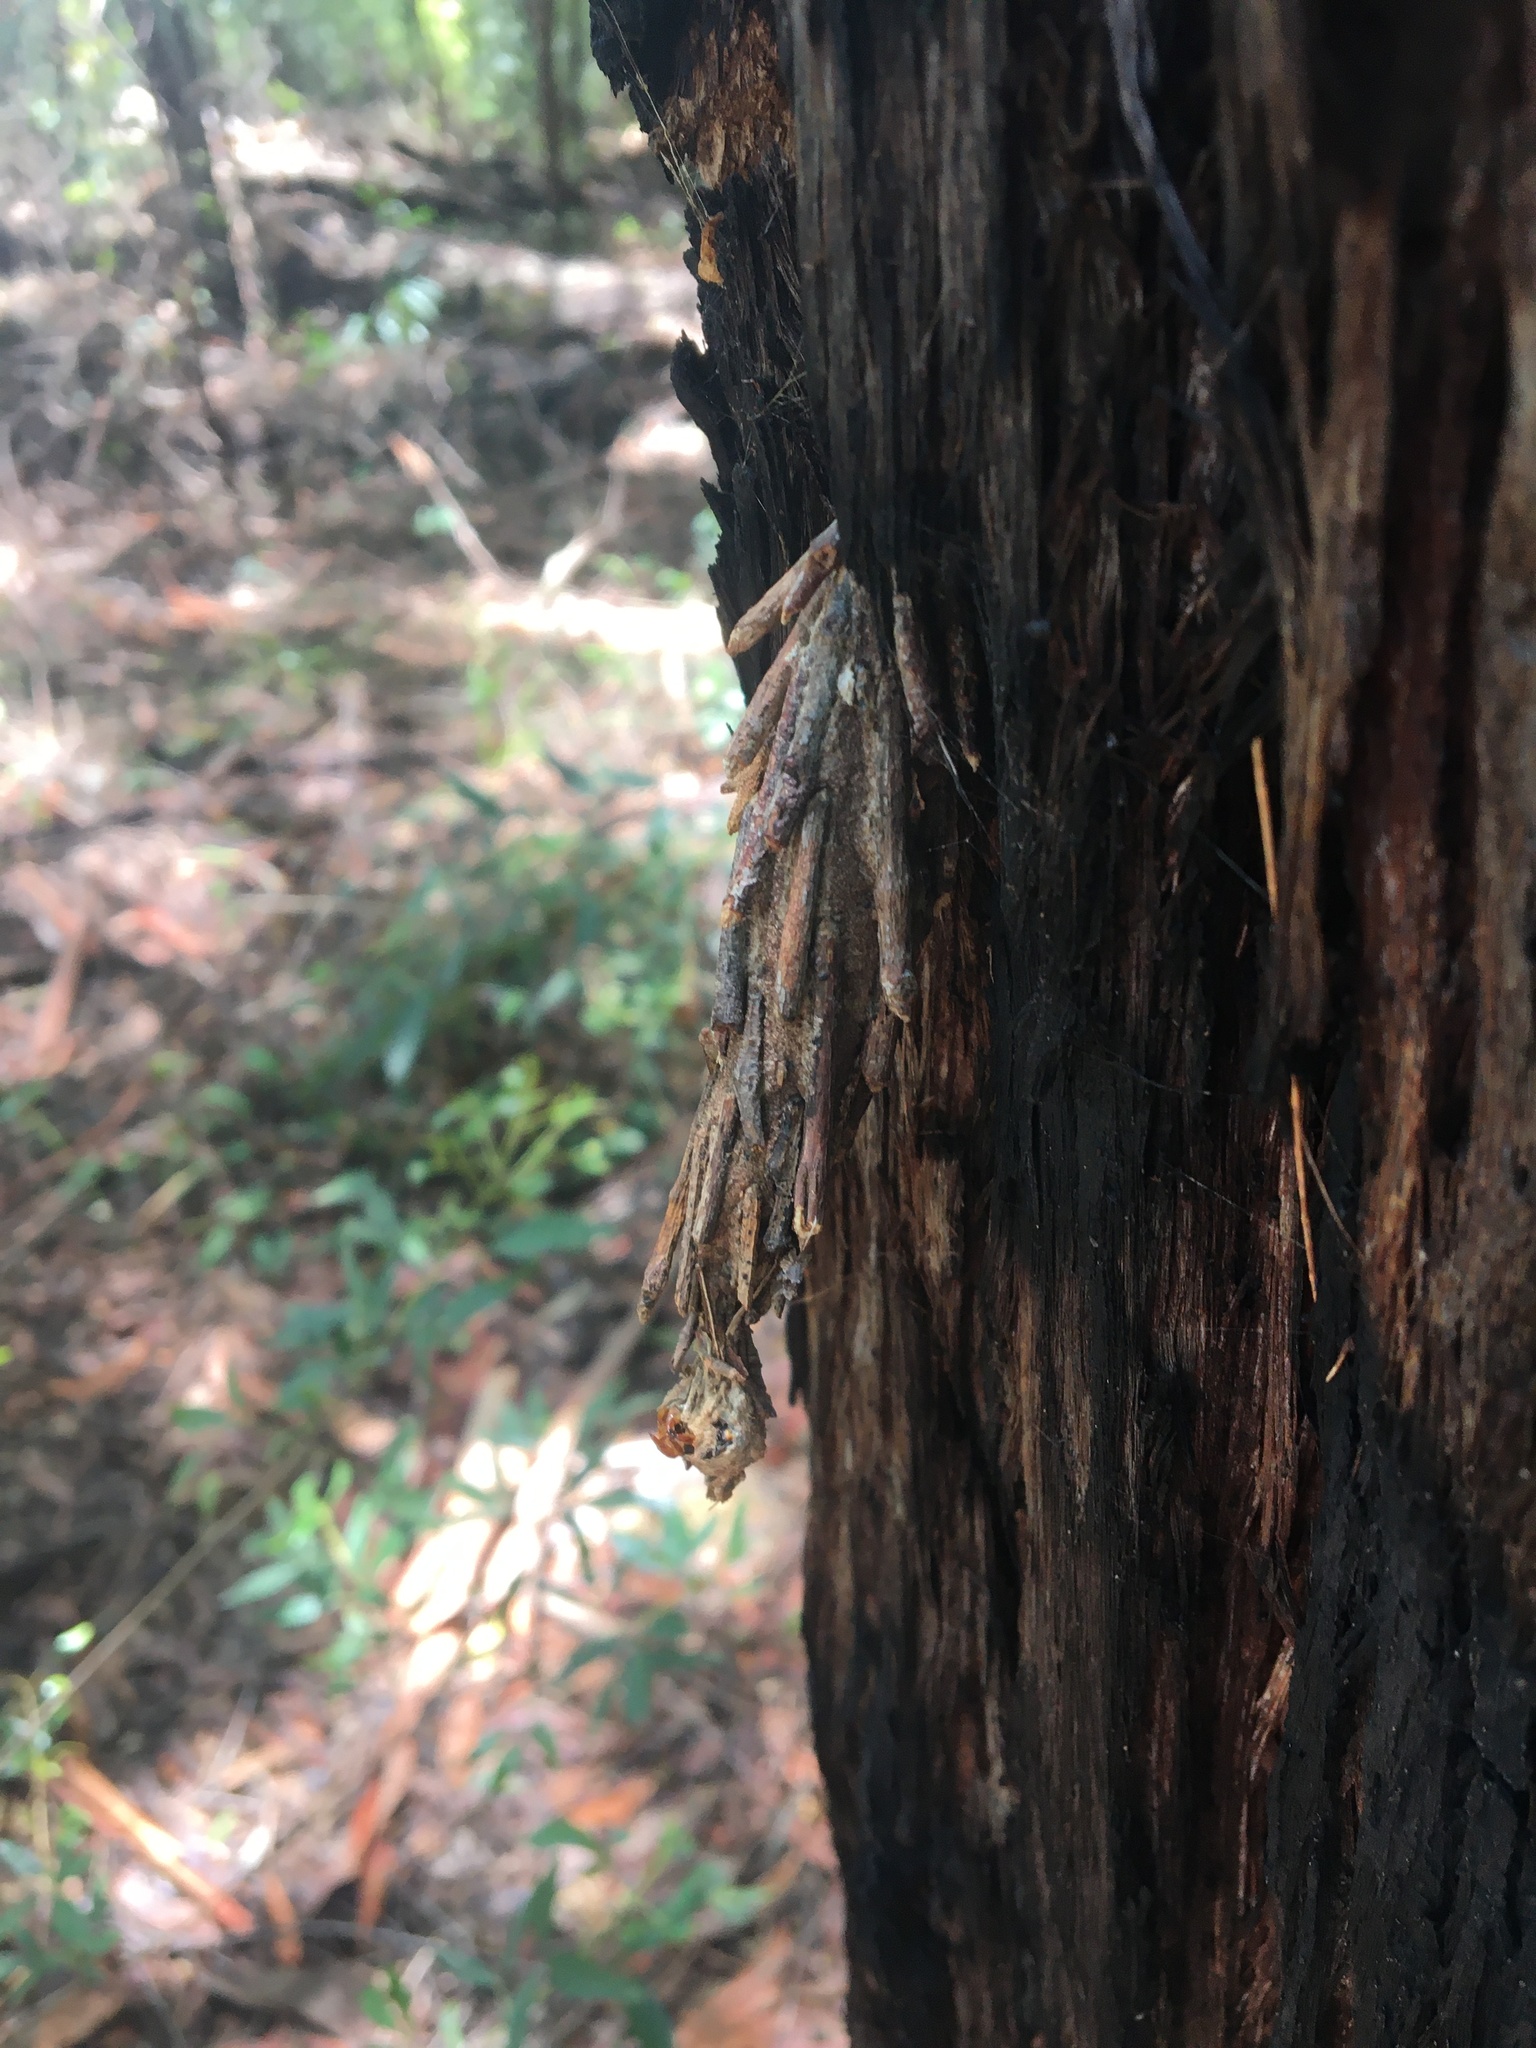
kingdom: Animalia
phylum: Arthropoda
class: Insecta
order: Lepidoptera
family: Psychidae
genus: Metura
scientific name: Metura elongatus
